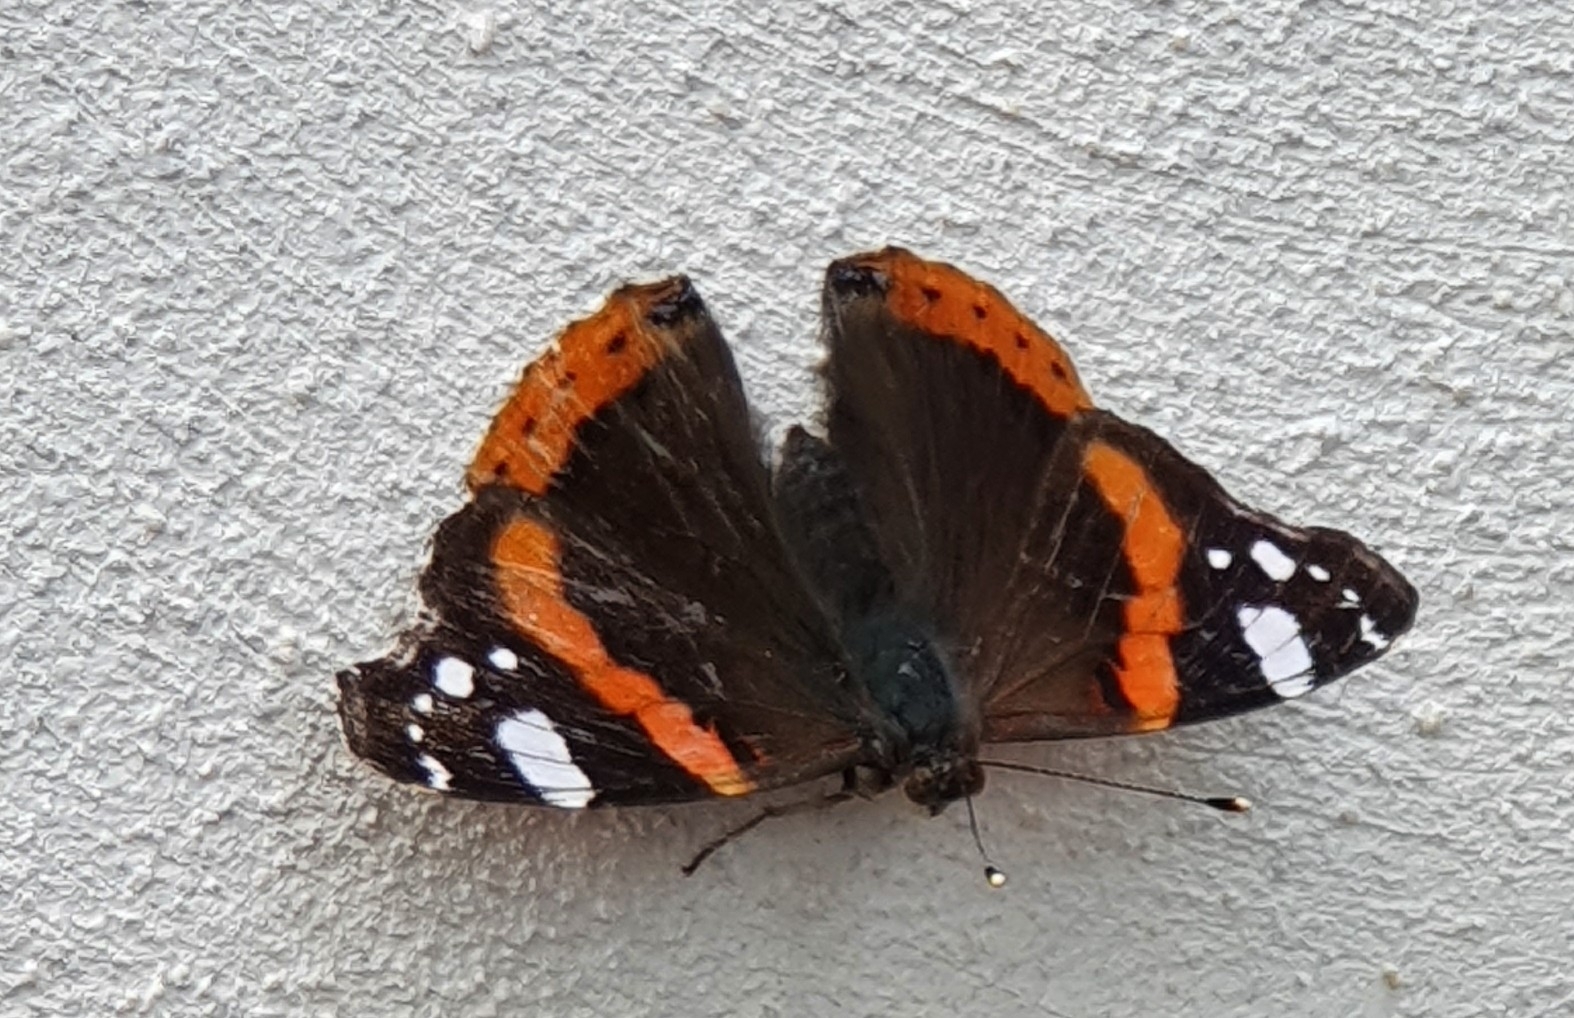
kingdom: Animalia
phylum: Arthropoda
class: Insecta
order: Lepidoptera
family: Nymphalidae
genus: Vanessa
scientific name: Vanessa atalanta
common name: Red admiral
